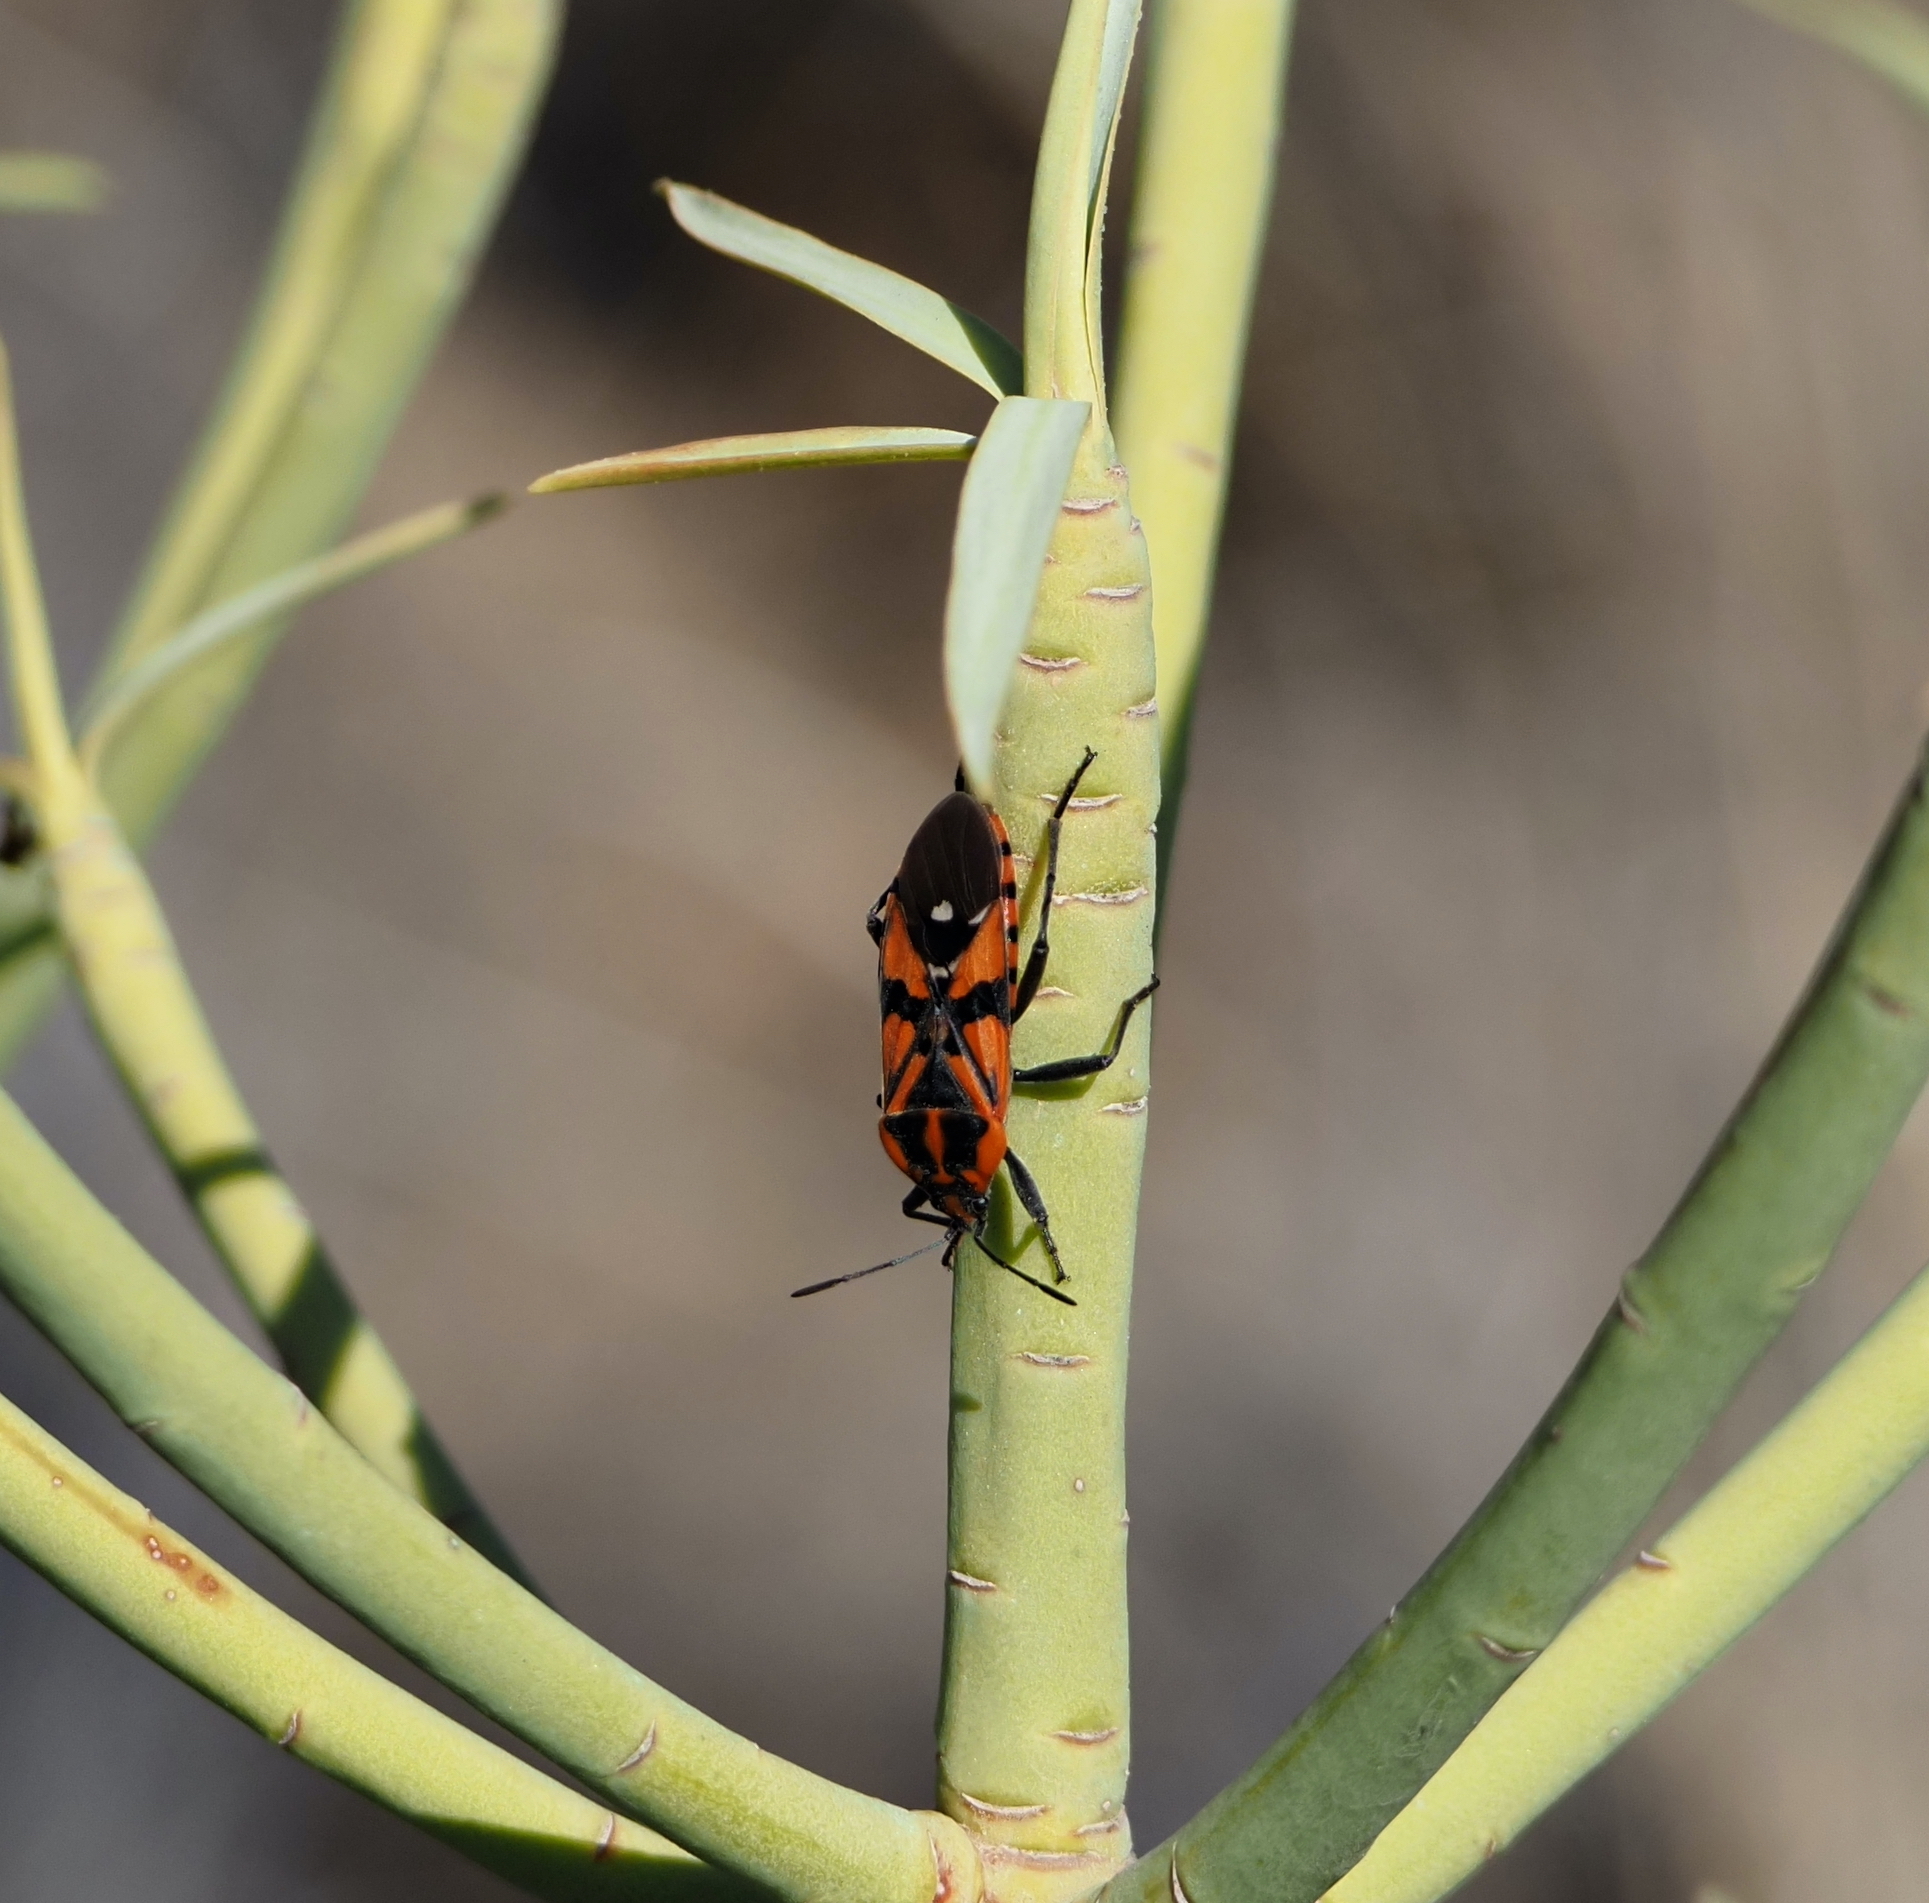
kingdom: Animalia
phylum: Arthropoda
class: Insecta
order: Hemiptera
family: Lygaeidae
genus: Spilostethus
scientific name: Spilostethus pandurus
